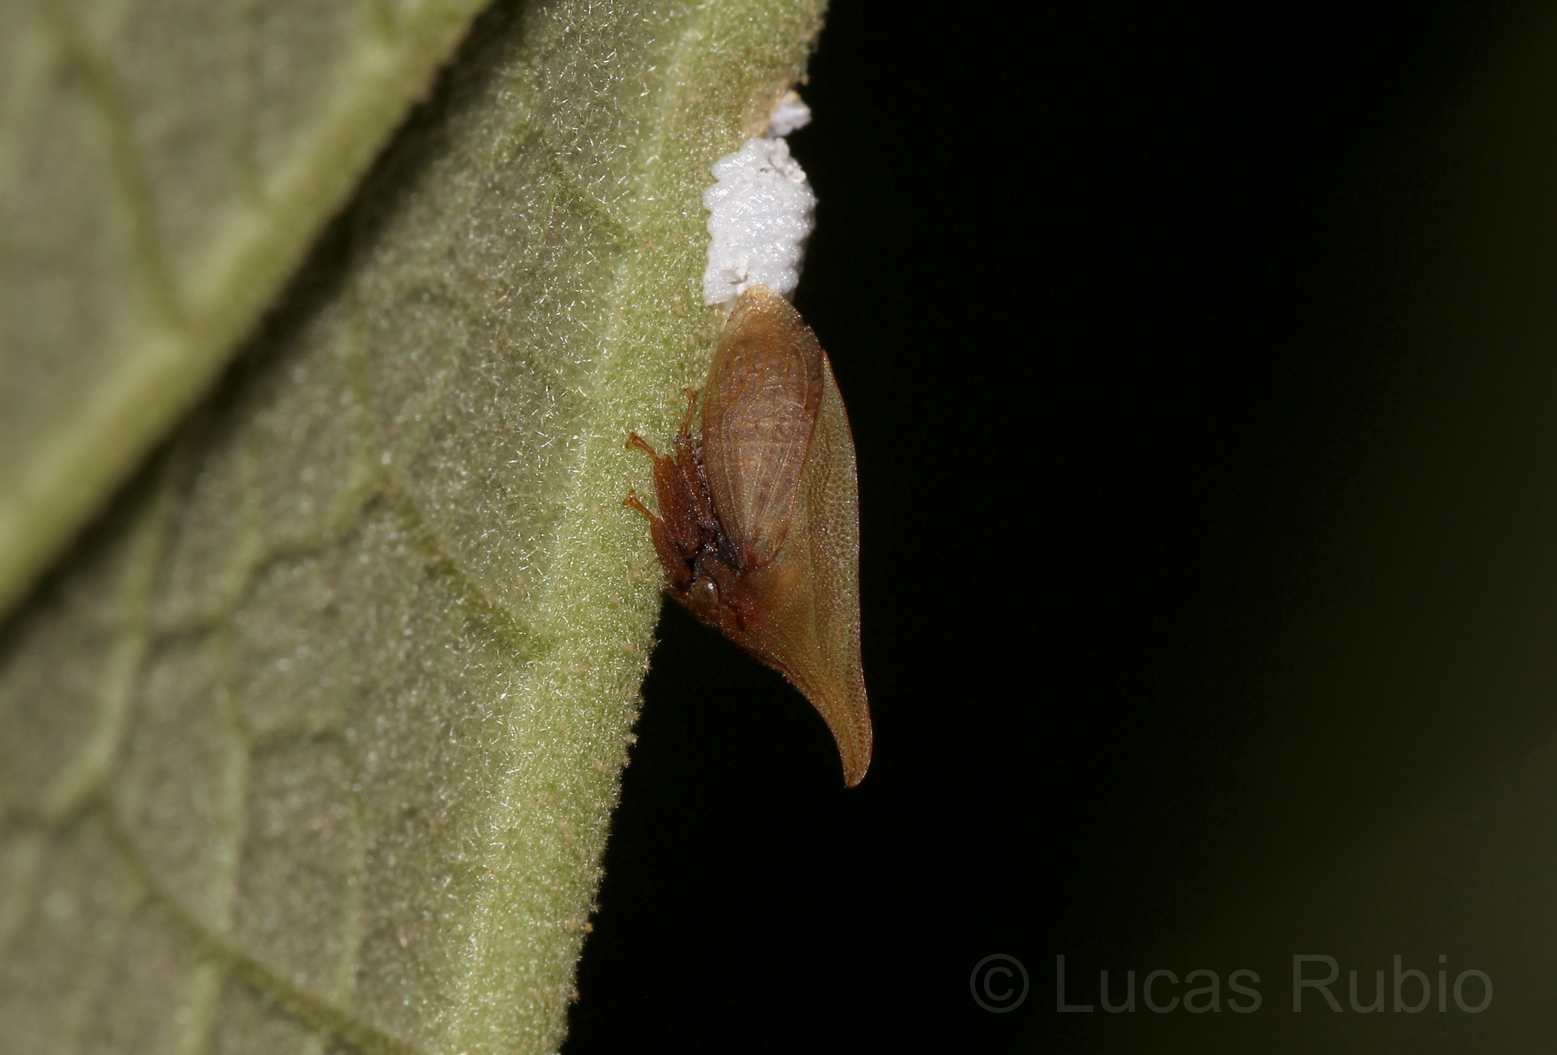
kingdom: Animalia
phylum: Arthropoda
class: Insecta
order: Hemiptera
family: Membracidae
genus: Enchenopa
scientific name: Enchenopa squamigera
